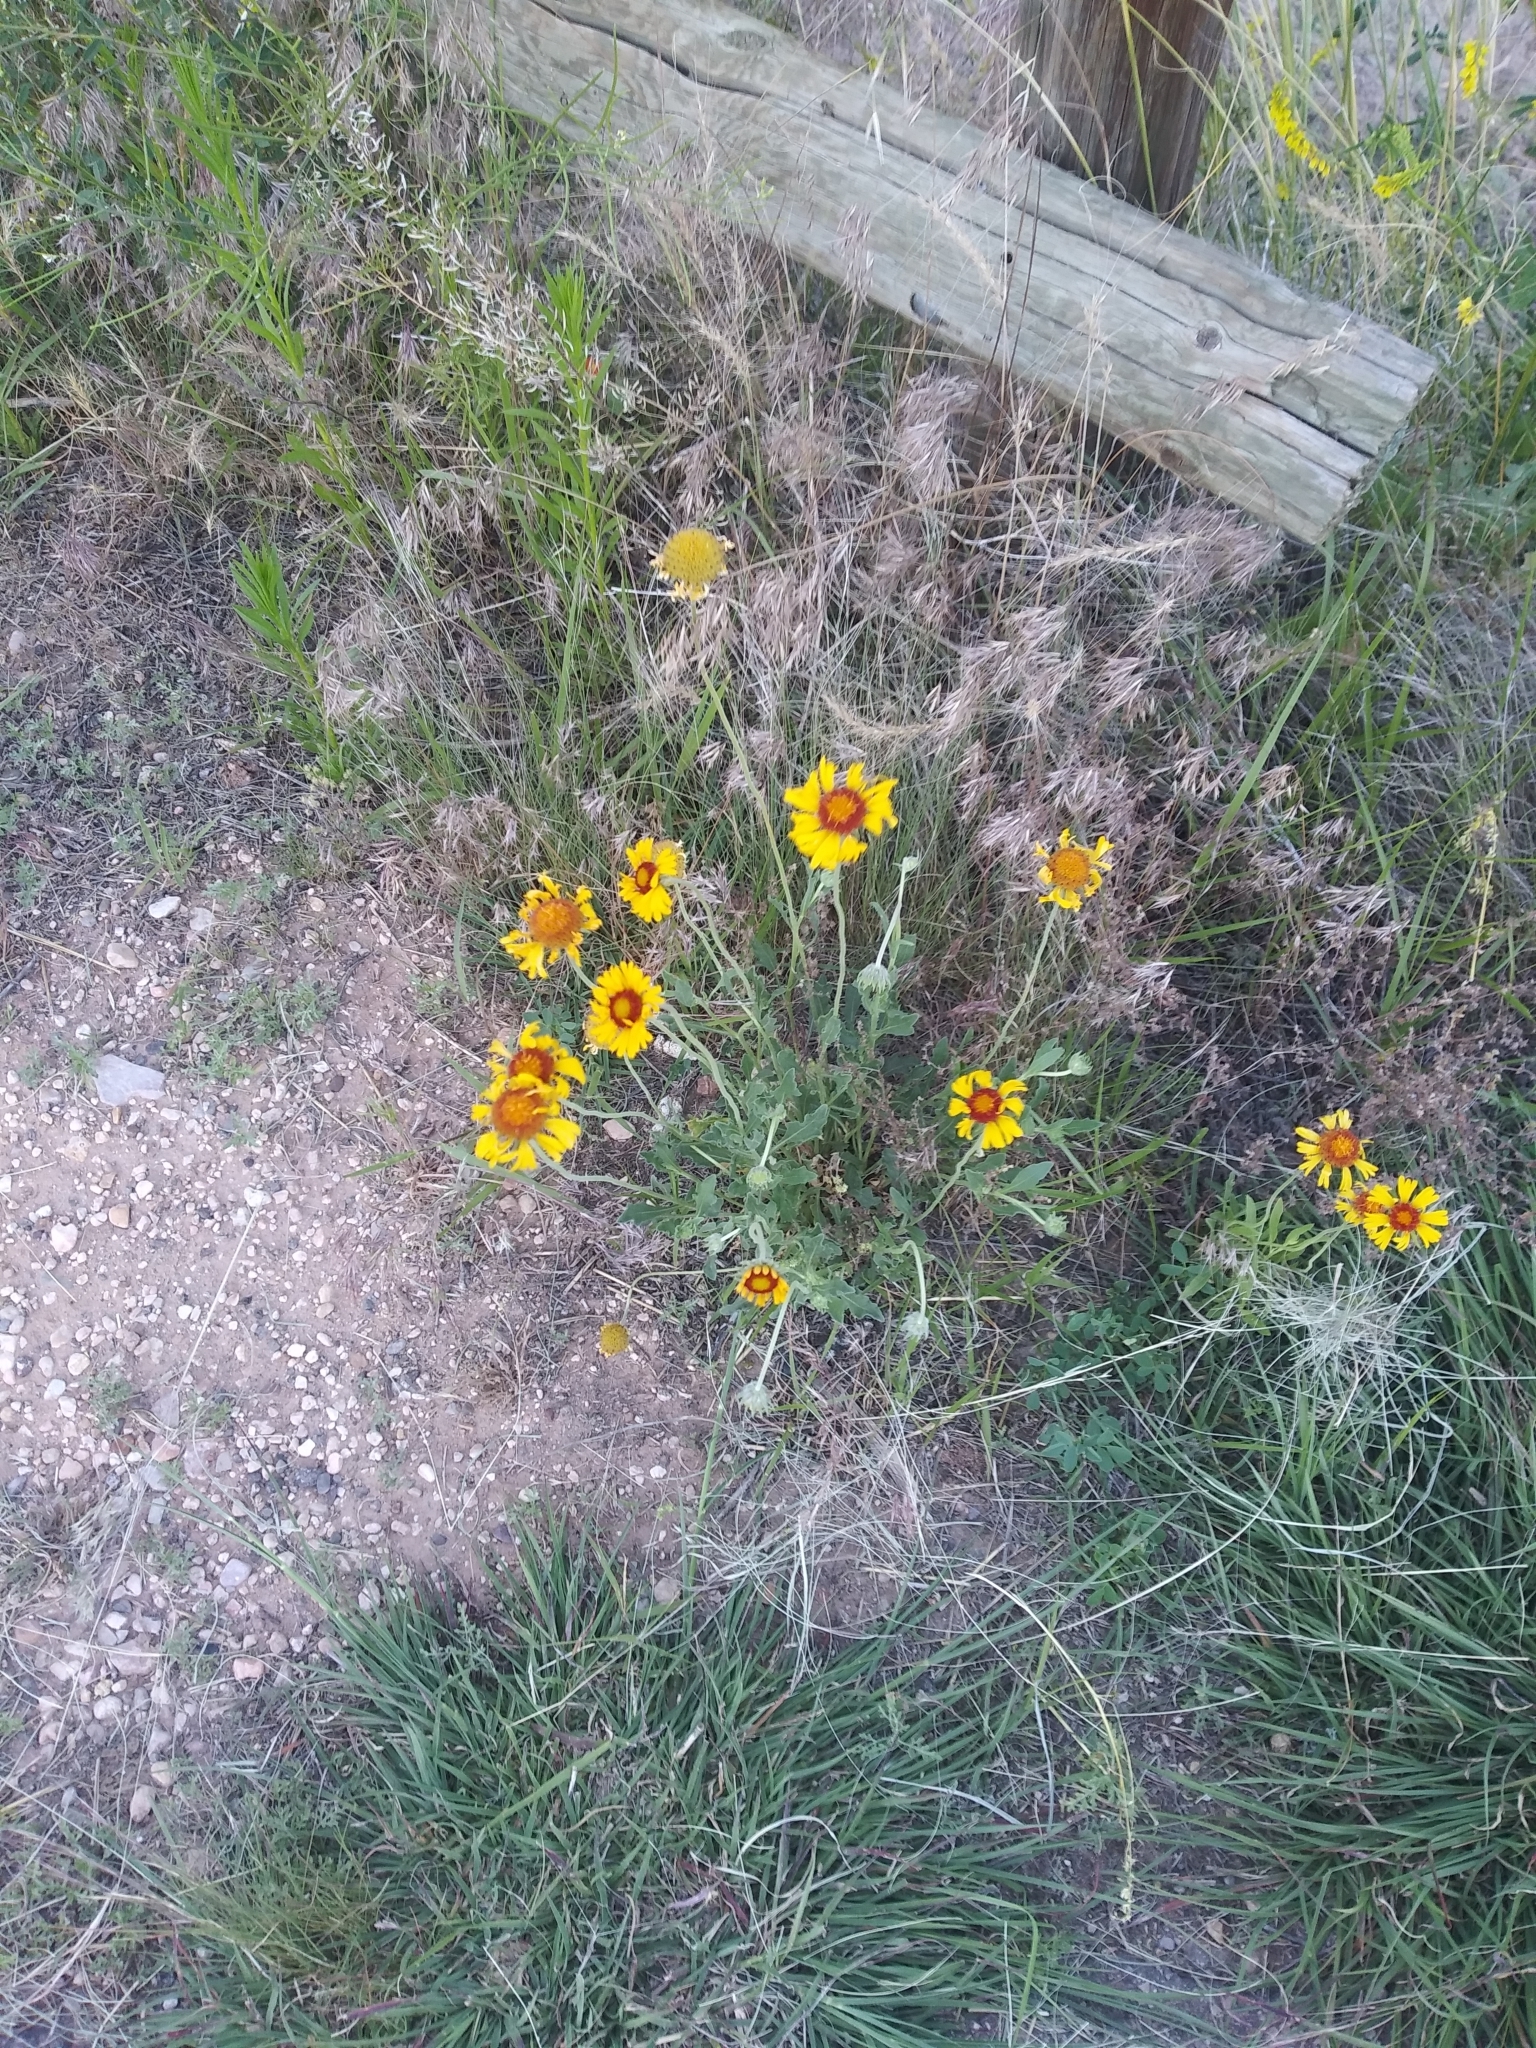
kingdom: Plantae
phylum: Tracheophyta
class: Magnoliopsida
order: Asterales
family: Asteraceae
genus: Gaillardia
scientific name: Gaillardia pinnatifida
